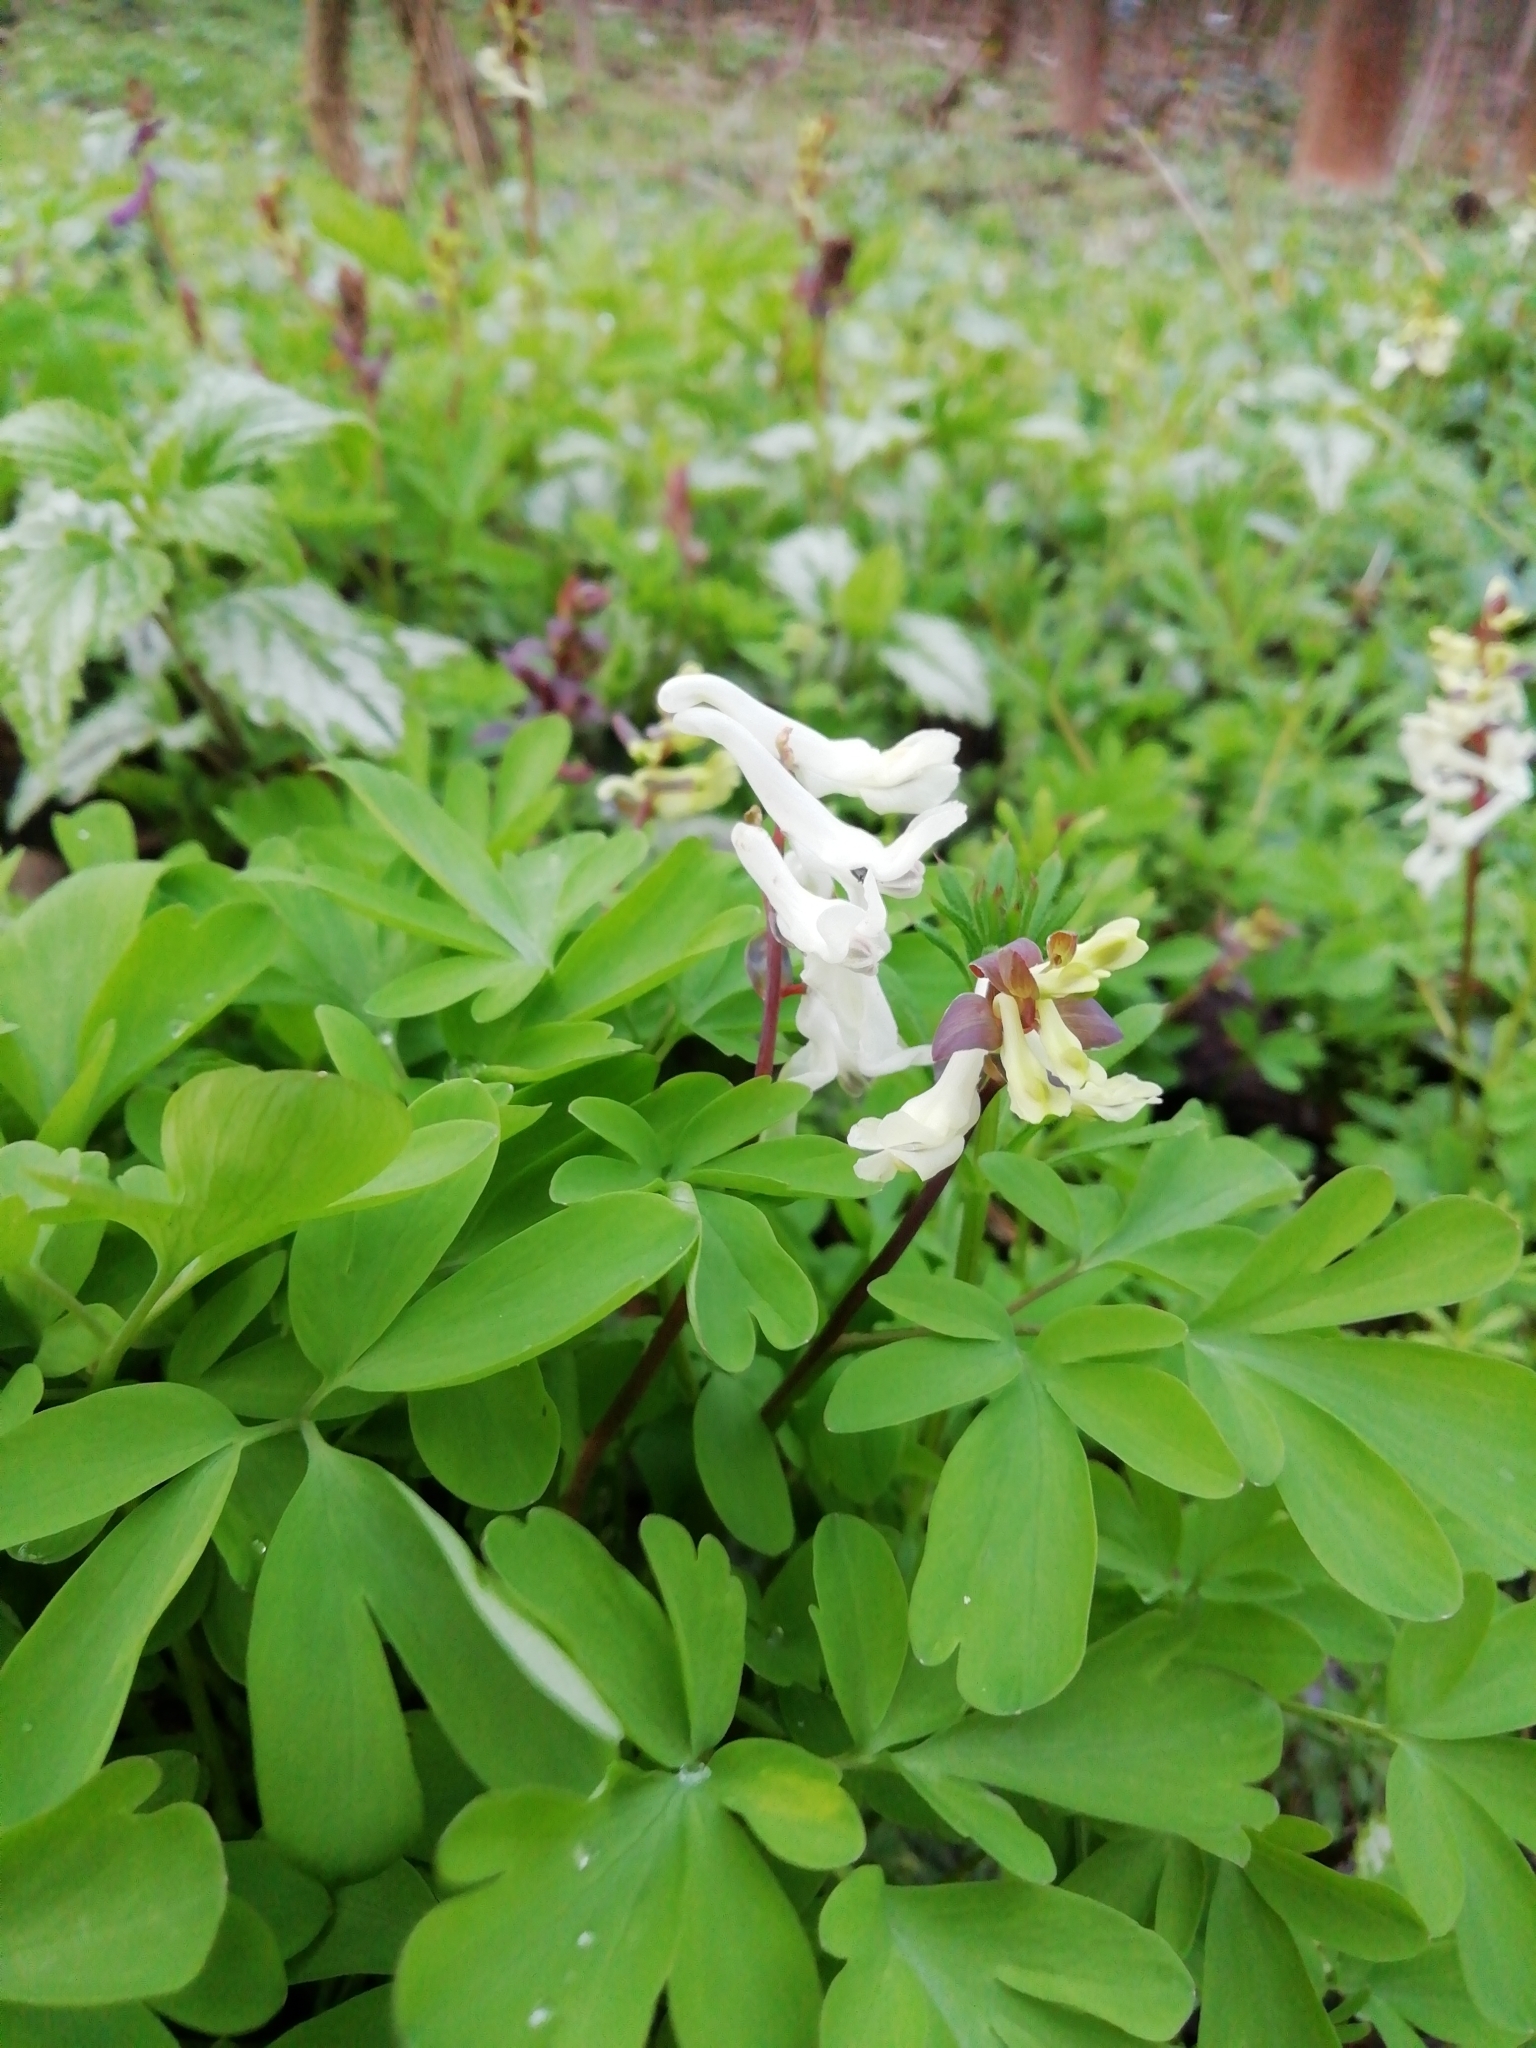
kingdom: Plantae
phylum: Tracheophyta
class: Magnoliopsida
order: Ranunculales
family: Papaveraceae
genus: Corydalis
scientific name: Corydalis cava
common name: Hollowroot
